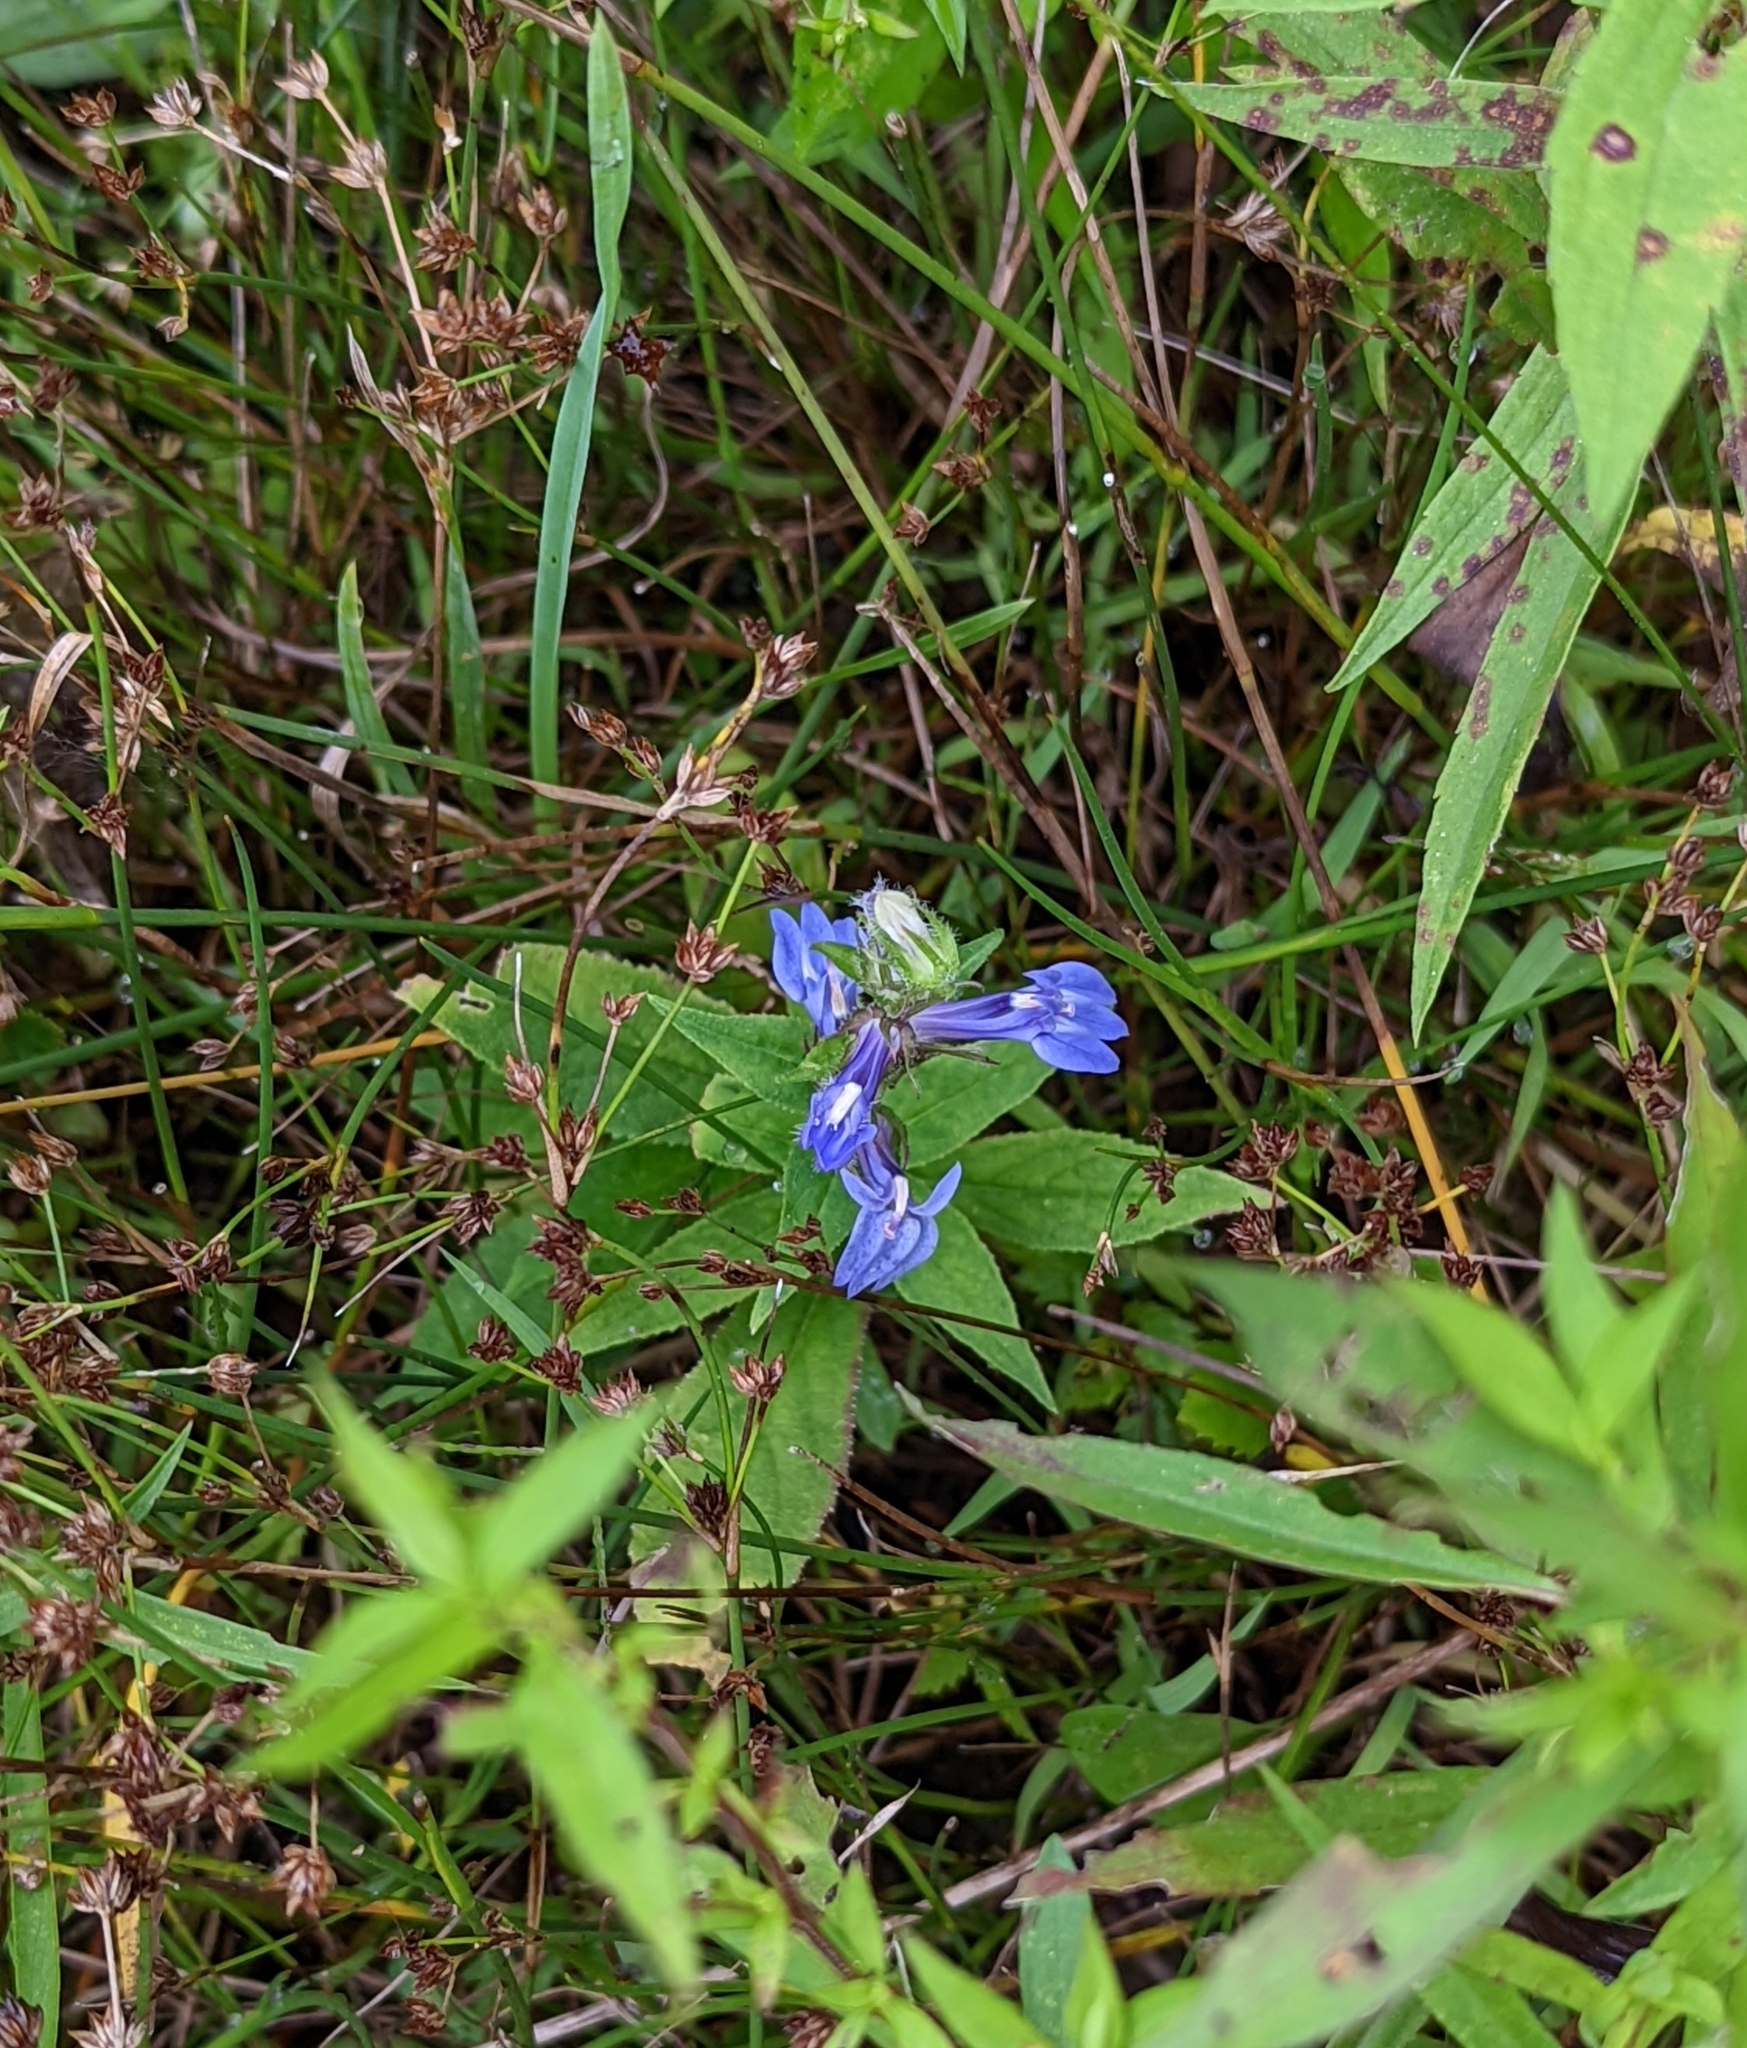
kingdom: Plantae
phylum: Tracheophyta
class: Magnoliopsida
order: Asterales
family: Campanulaceae
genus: Lobelia
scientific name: Lobelia siphilitica
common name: Great lobelia
